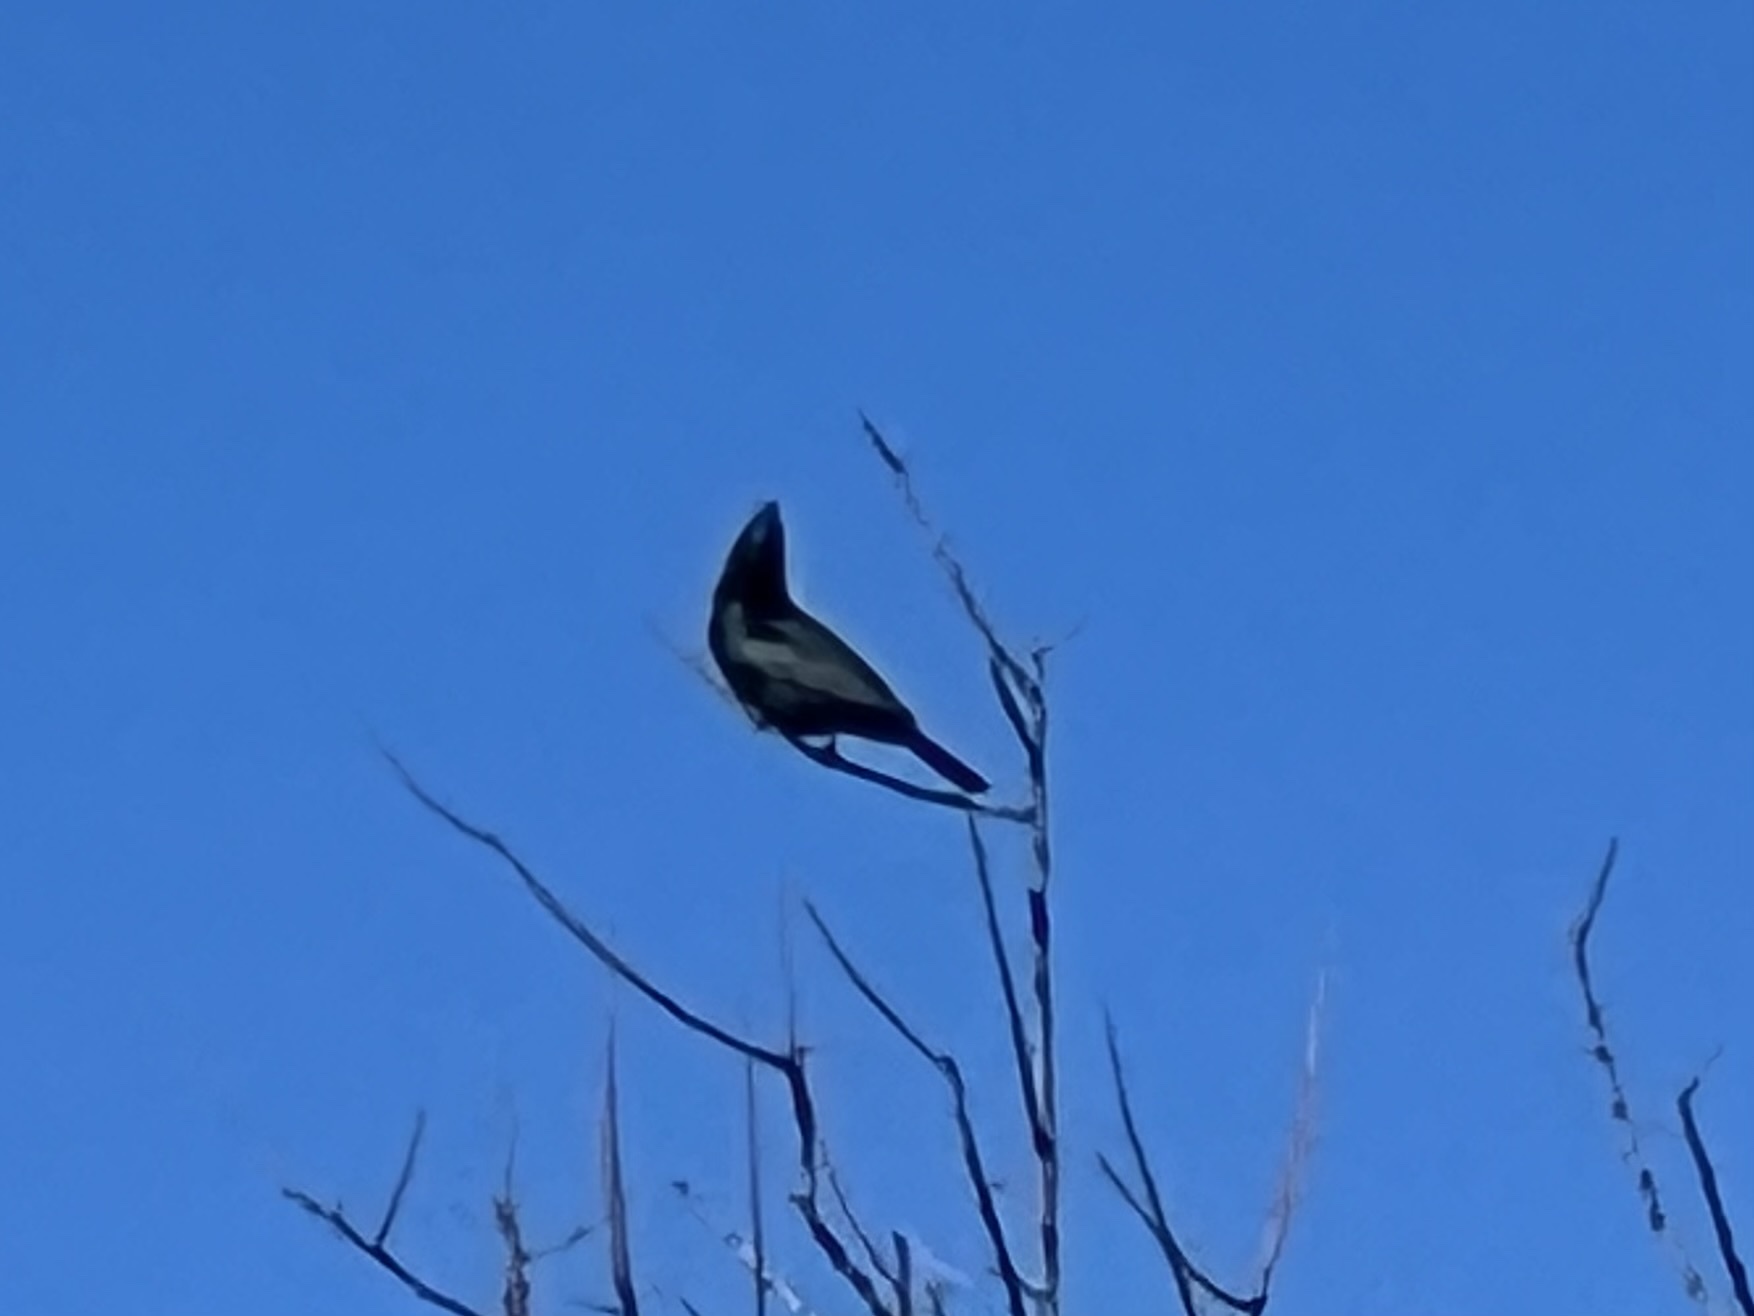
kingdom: Animalia
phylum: Chordata
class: Aves
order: Passeriformes
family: Ptilogonatidae
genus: Phainopepla
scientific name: Phainopepla nitens
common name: Phainopepla
